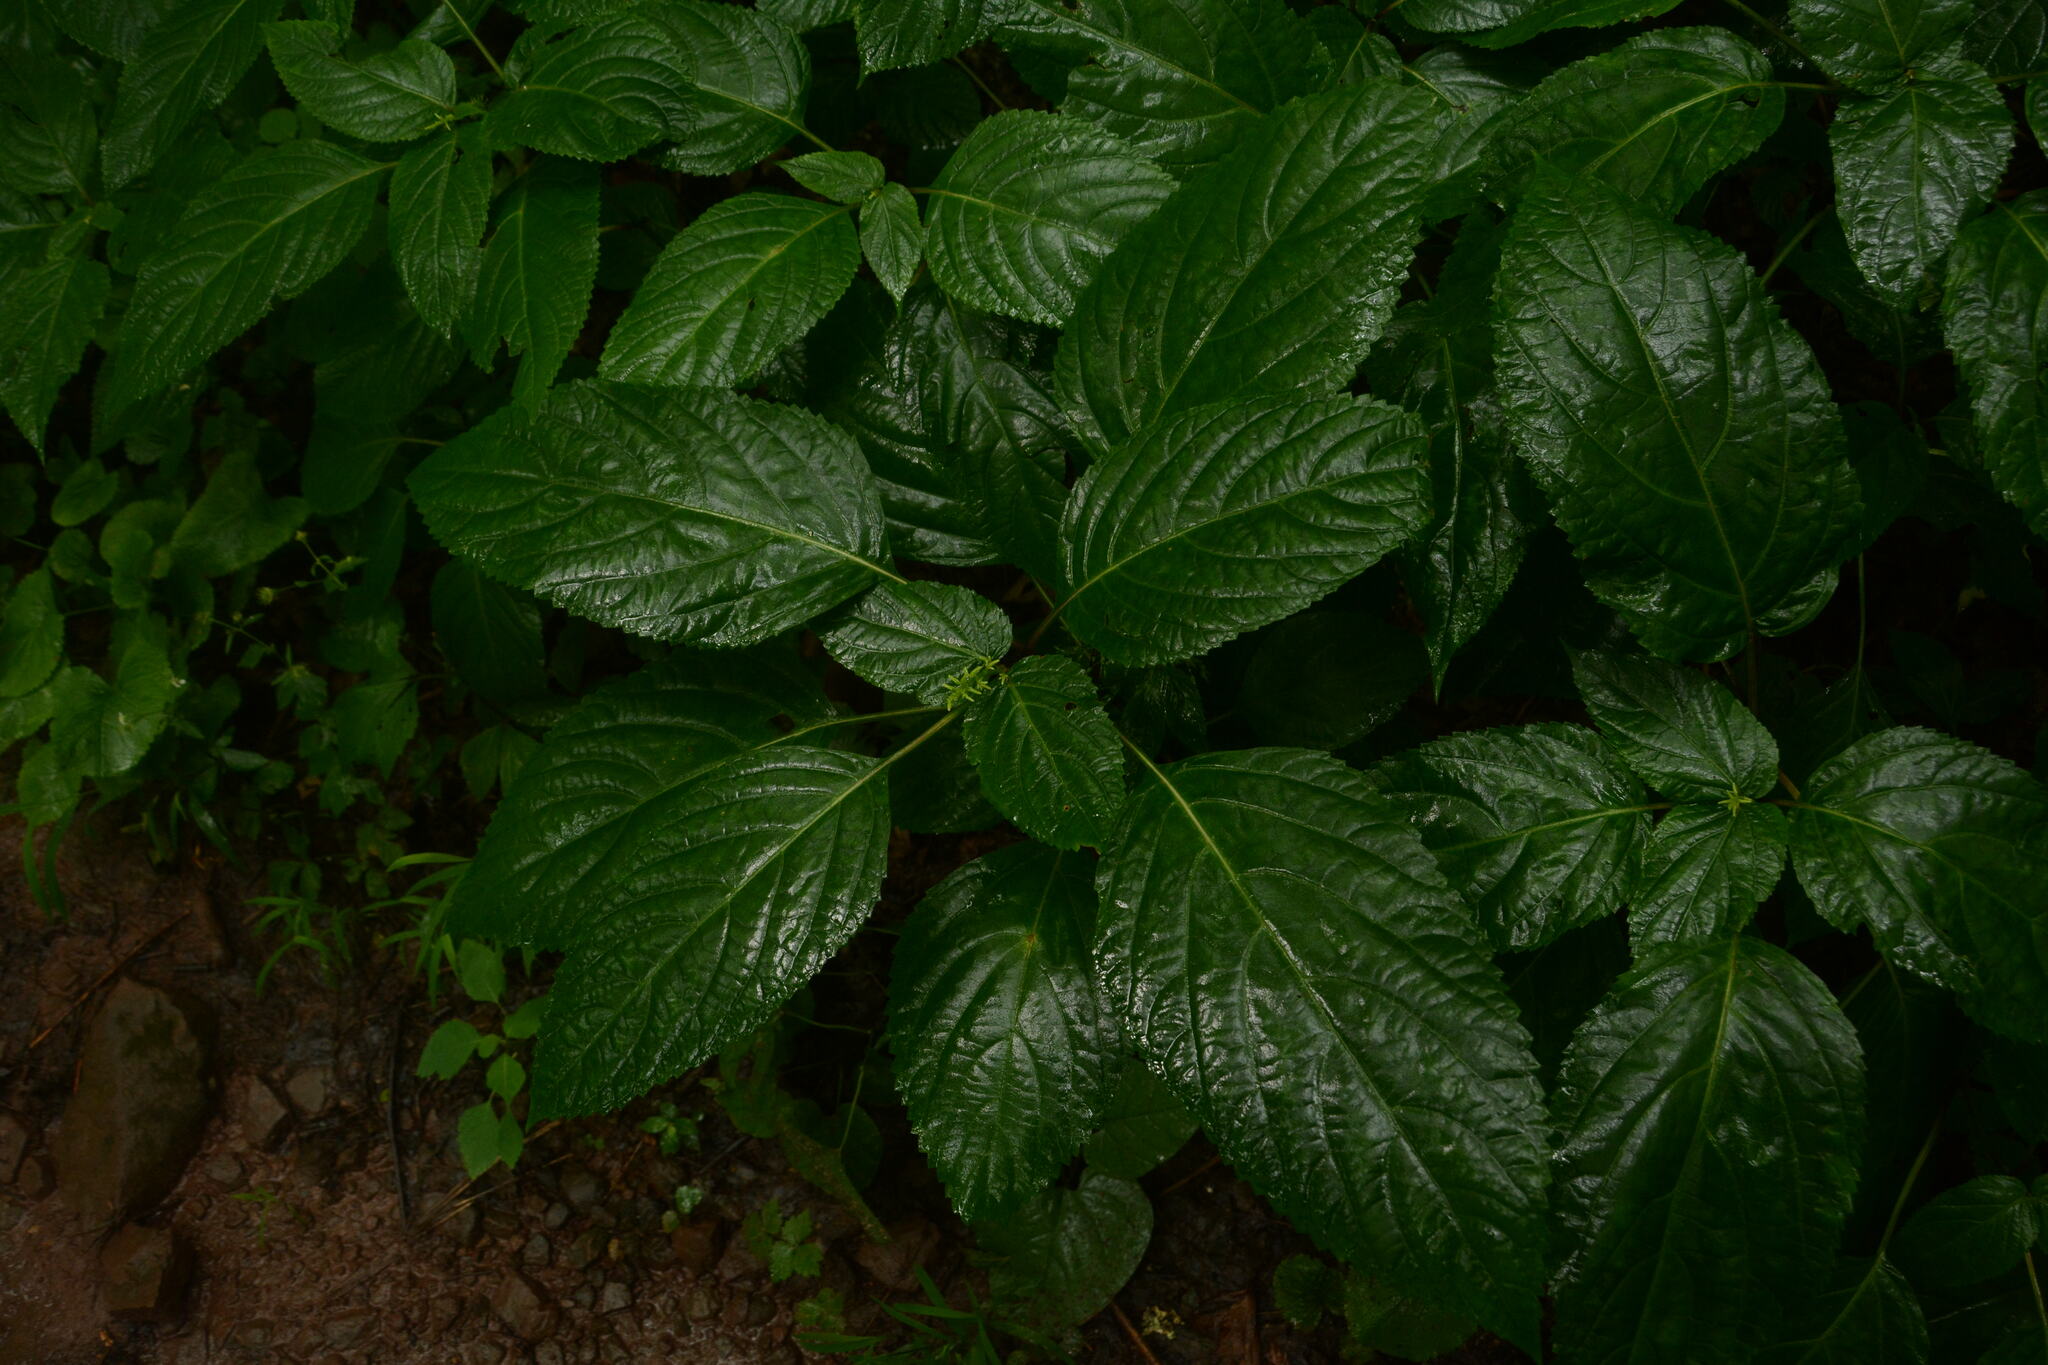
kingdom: Plantae
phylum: Tracheophyta
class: Magnoliopsida
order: Lamiales
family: Lamiaceae
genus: Collinsonia
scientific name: Collinsonia canadensis
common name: Northern horsebalm
